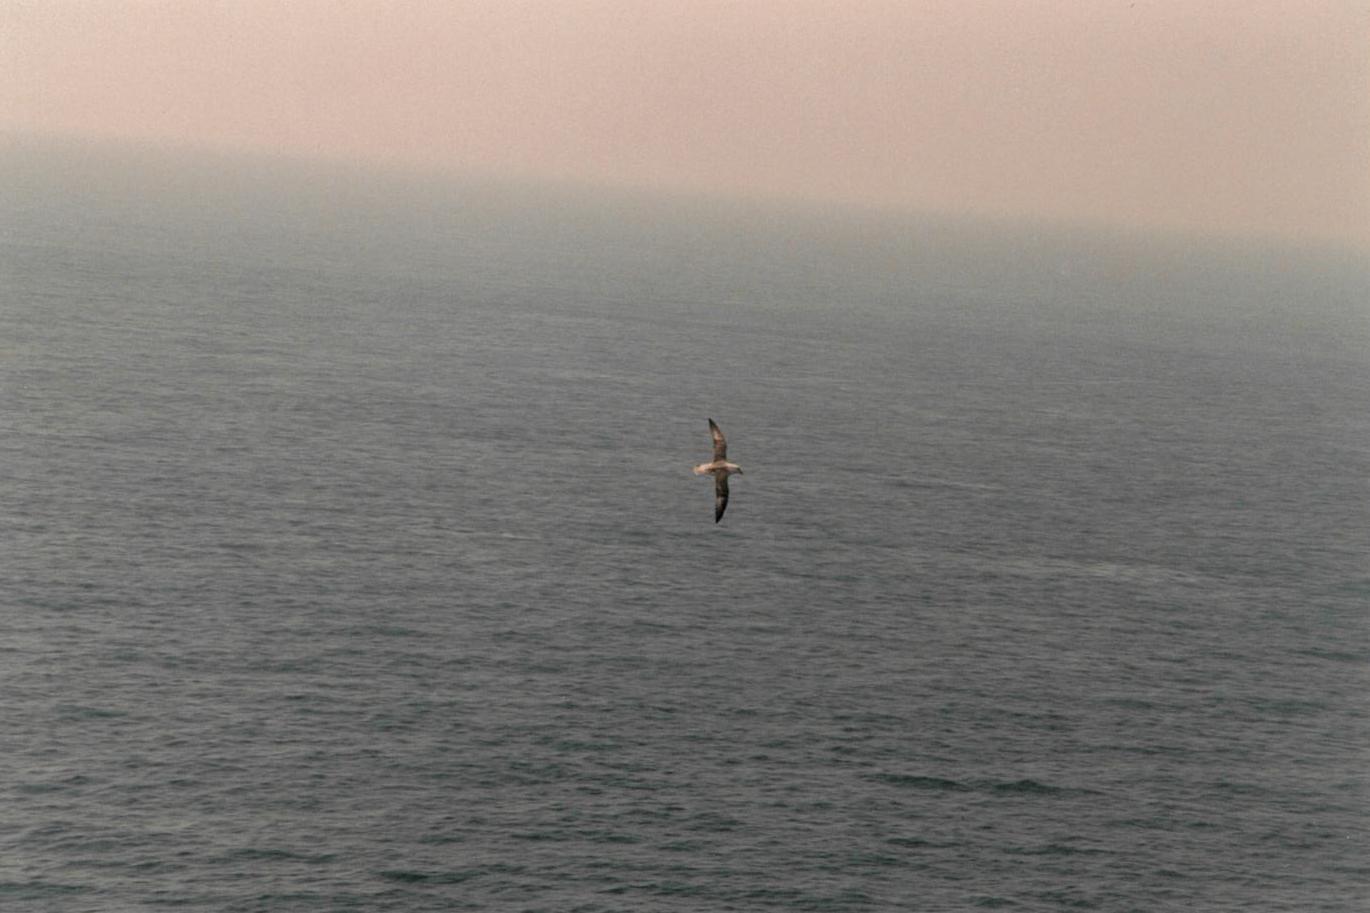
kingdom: Animalia
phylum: Chordata
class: Aves
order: Procellariiformes
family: Procellariidae
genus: Fulmarus
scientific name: Fulmarus glacialis
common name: Northern fulmar
